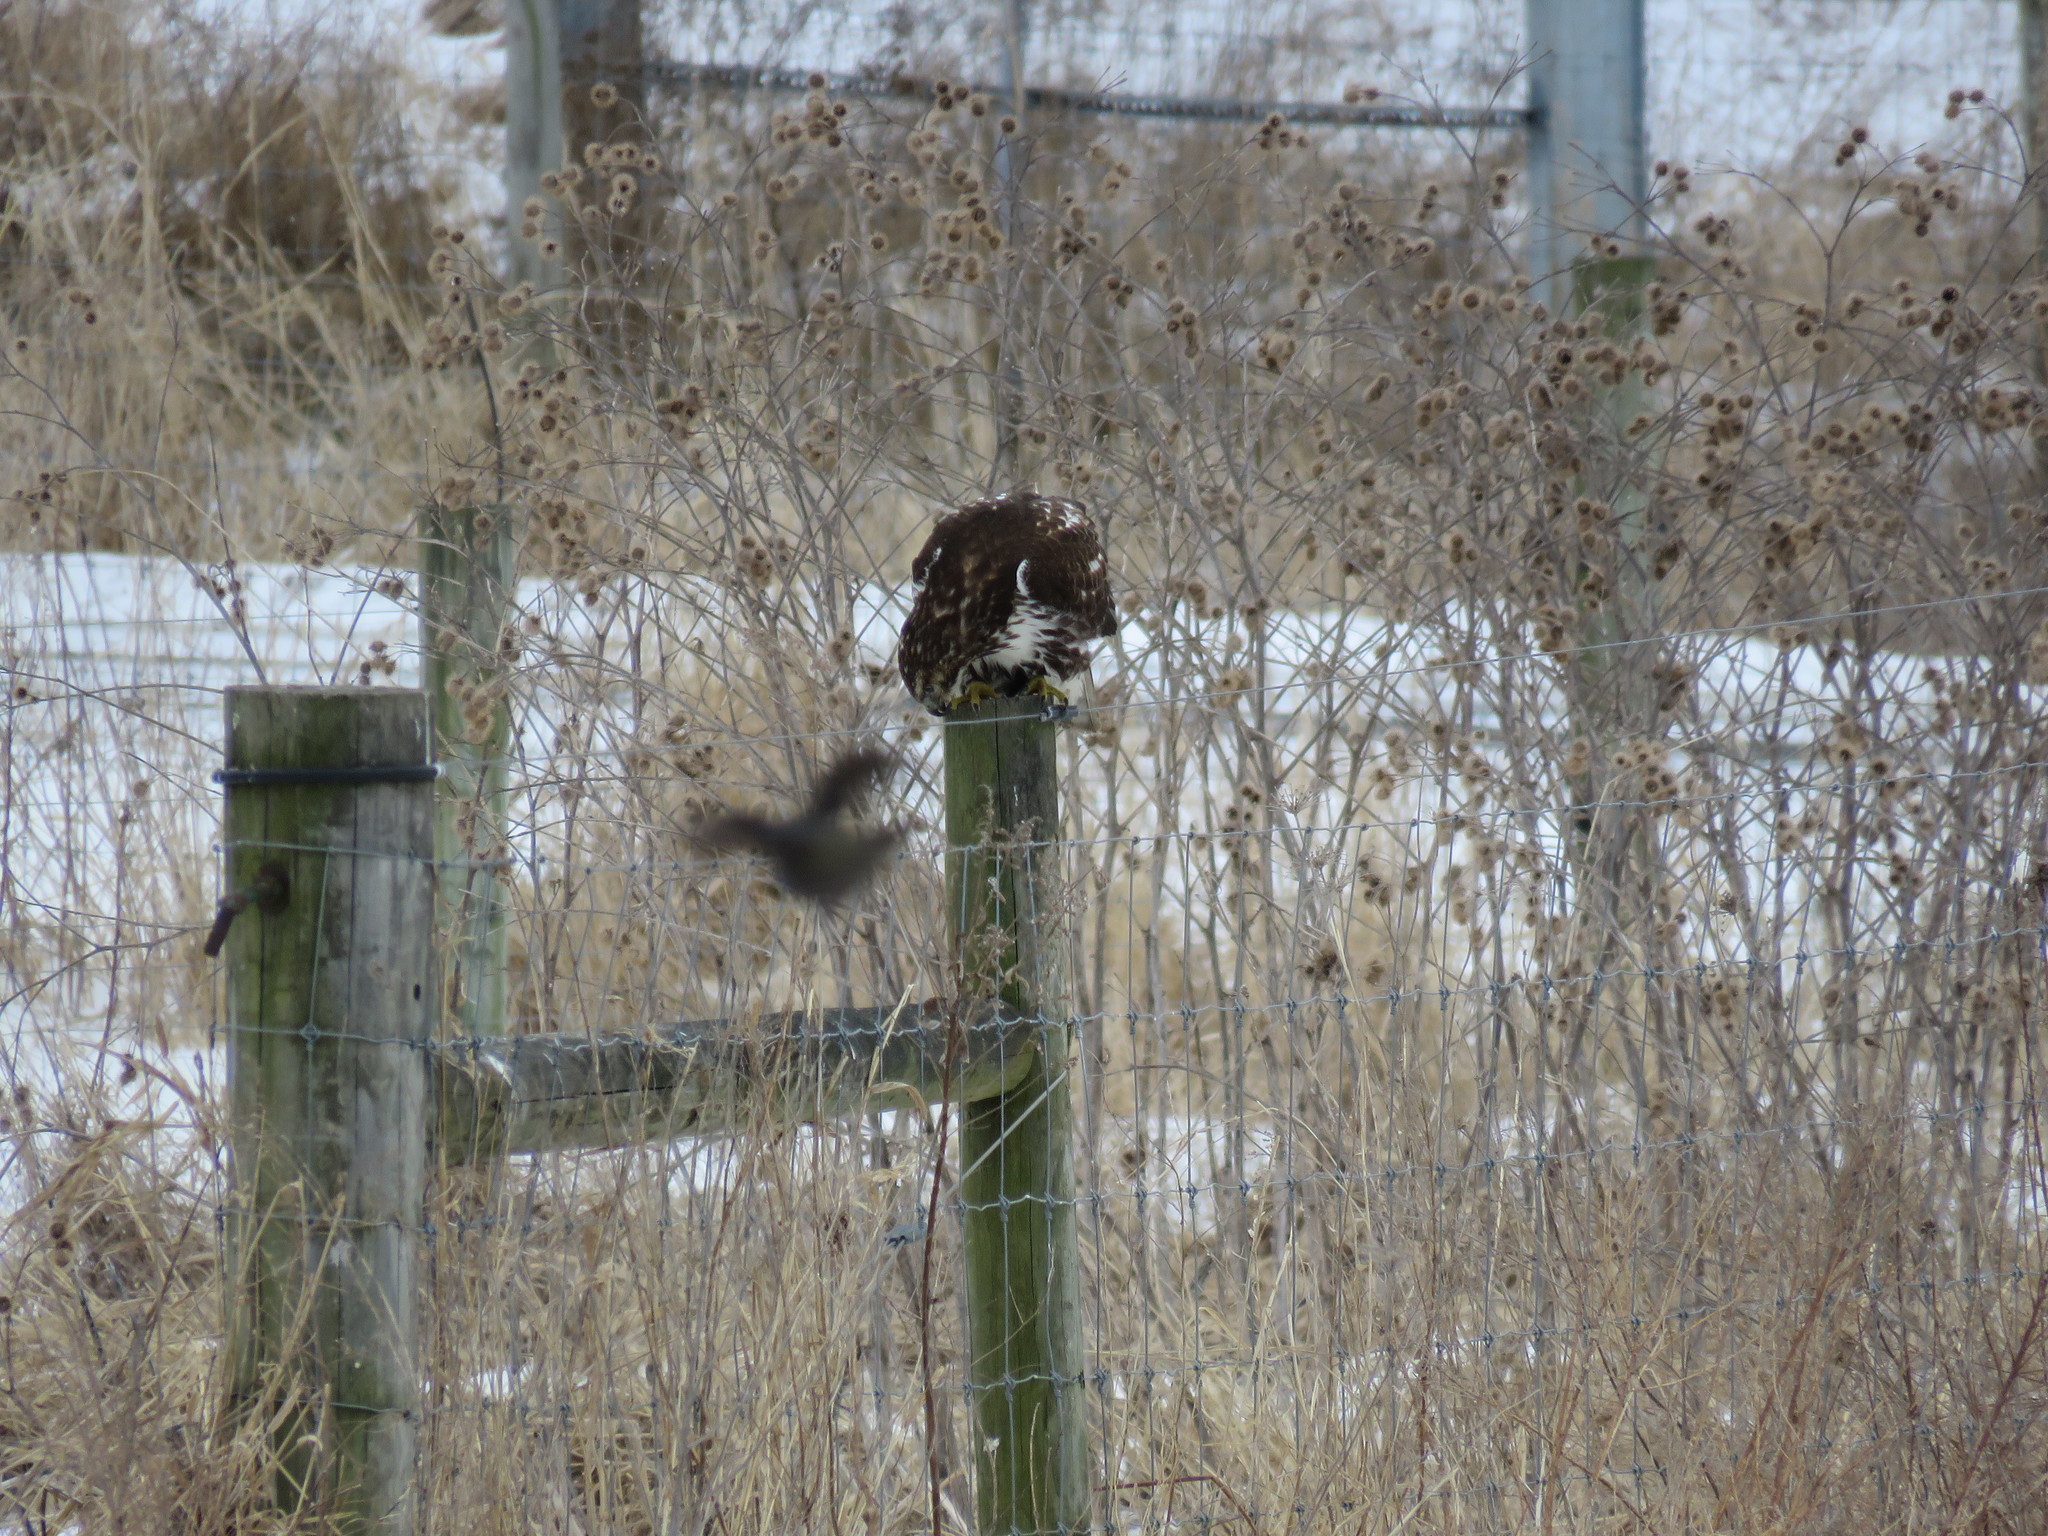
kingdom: Animalia
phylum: Chordata
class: Aves
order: Accipitriformes
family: Accipitridae
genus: Buteo
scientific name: Buteo jamaicensis
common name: Red-tailed hawk
